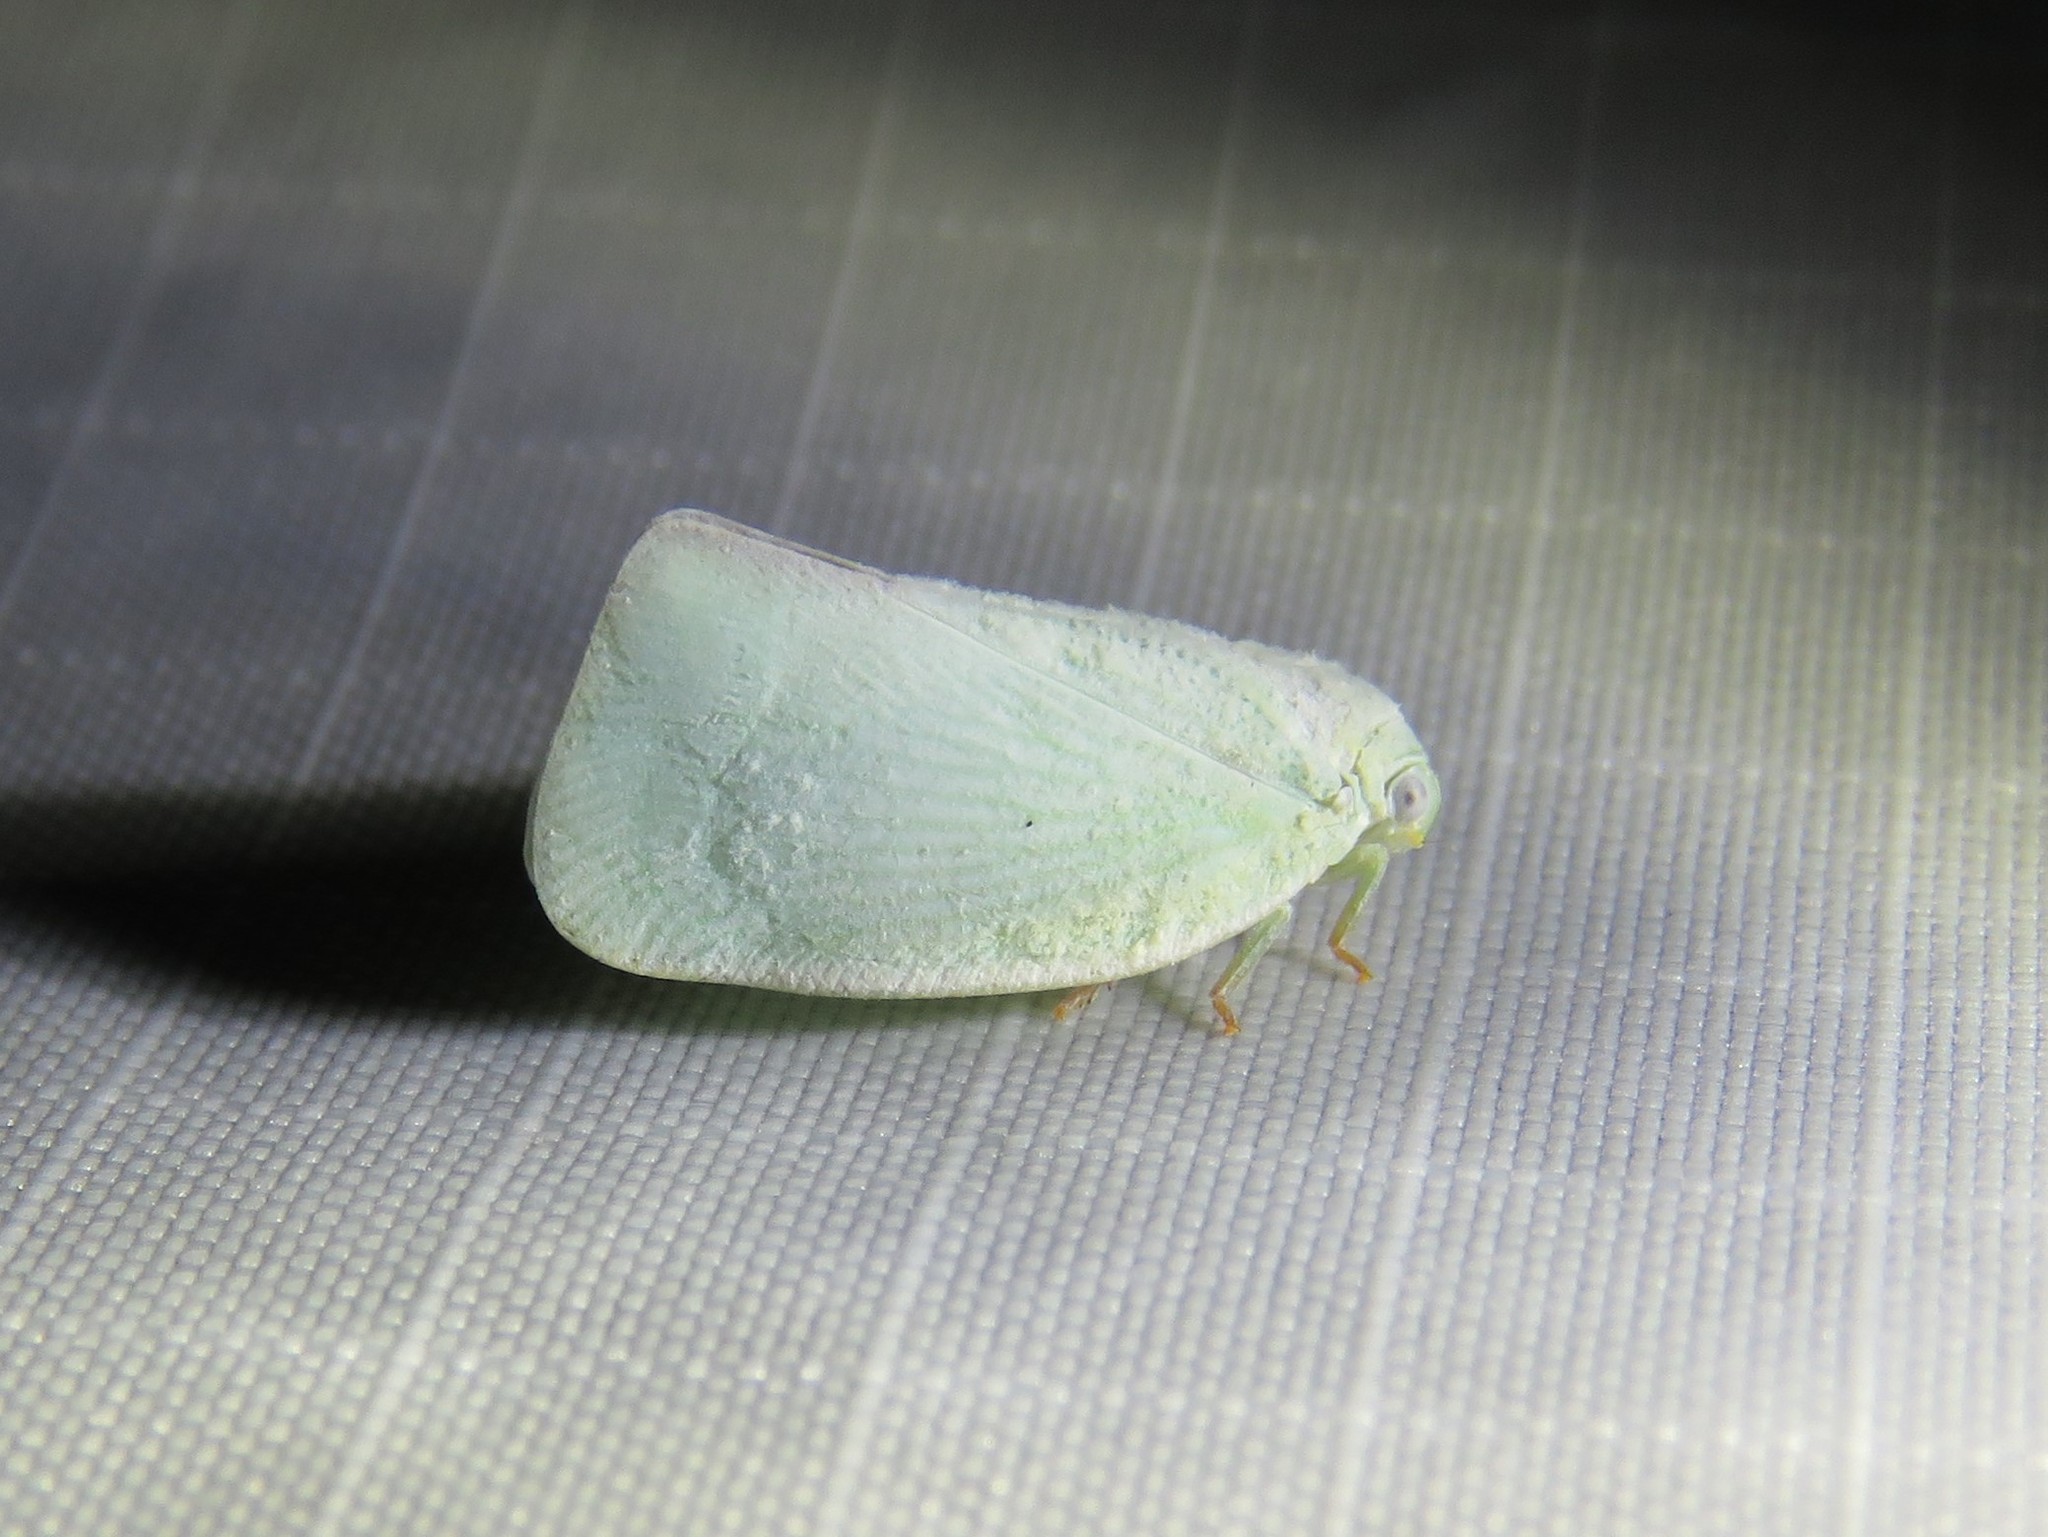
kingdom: Animalia
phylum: Arthropoda
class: Insecta
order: Hemiptera
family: Flatidae
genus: Flatormenis
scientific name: Flatormenis proxima
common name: Northern flatid planthopper
